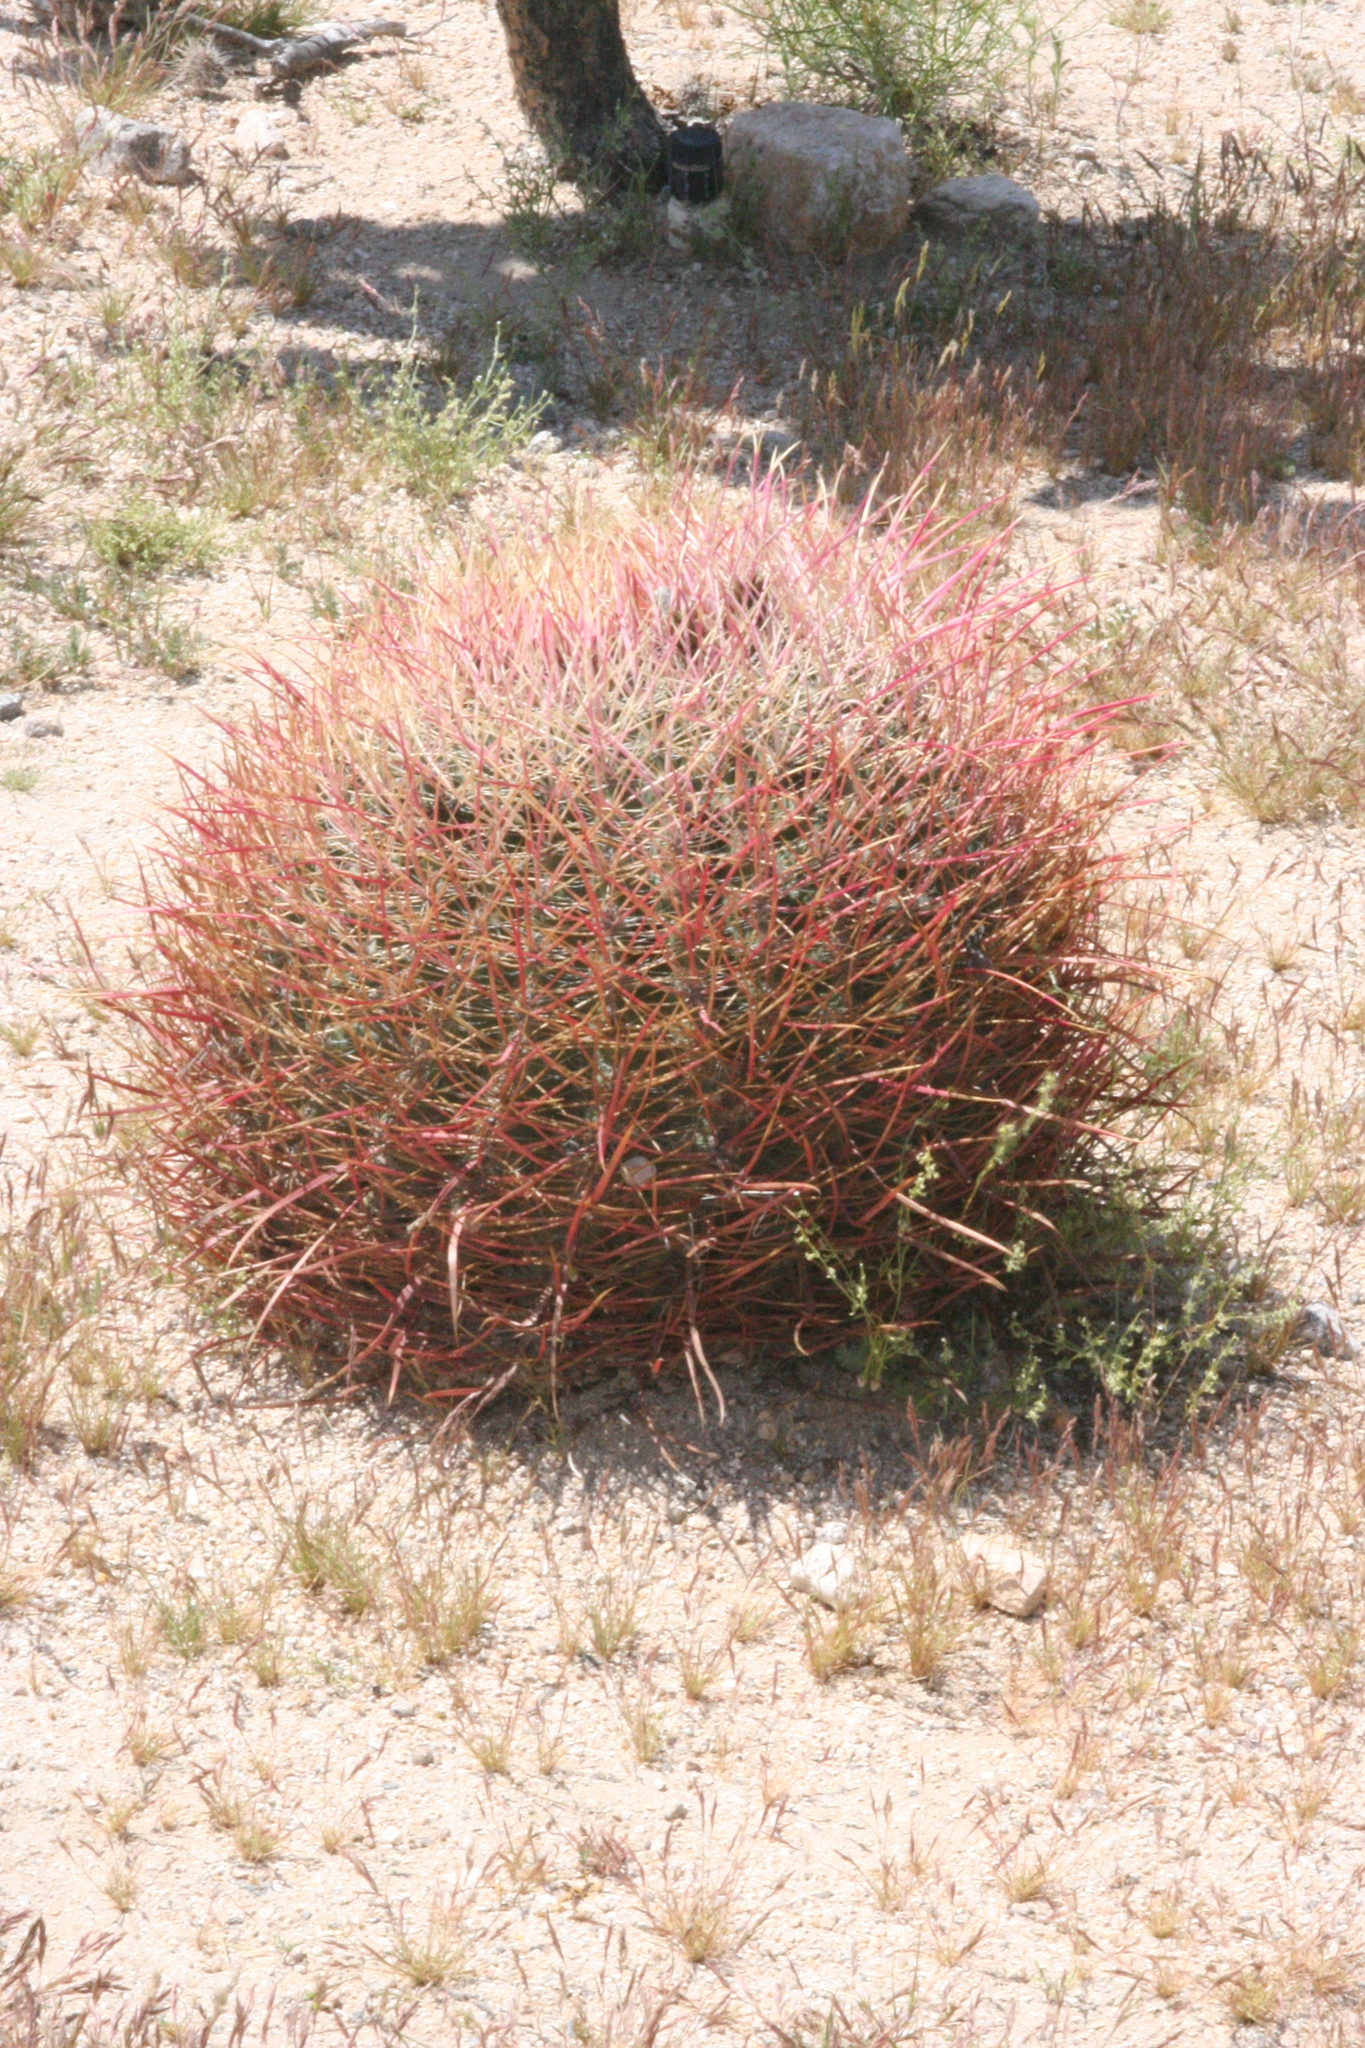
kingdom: Plantae
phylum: Tracheophyta
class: Magnoliopsida
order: Caryophyllales
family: Cactaceae
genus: Ferocactus
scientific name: Ferocactus cylindraceus
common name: California barrel cactus
